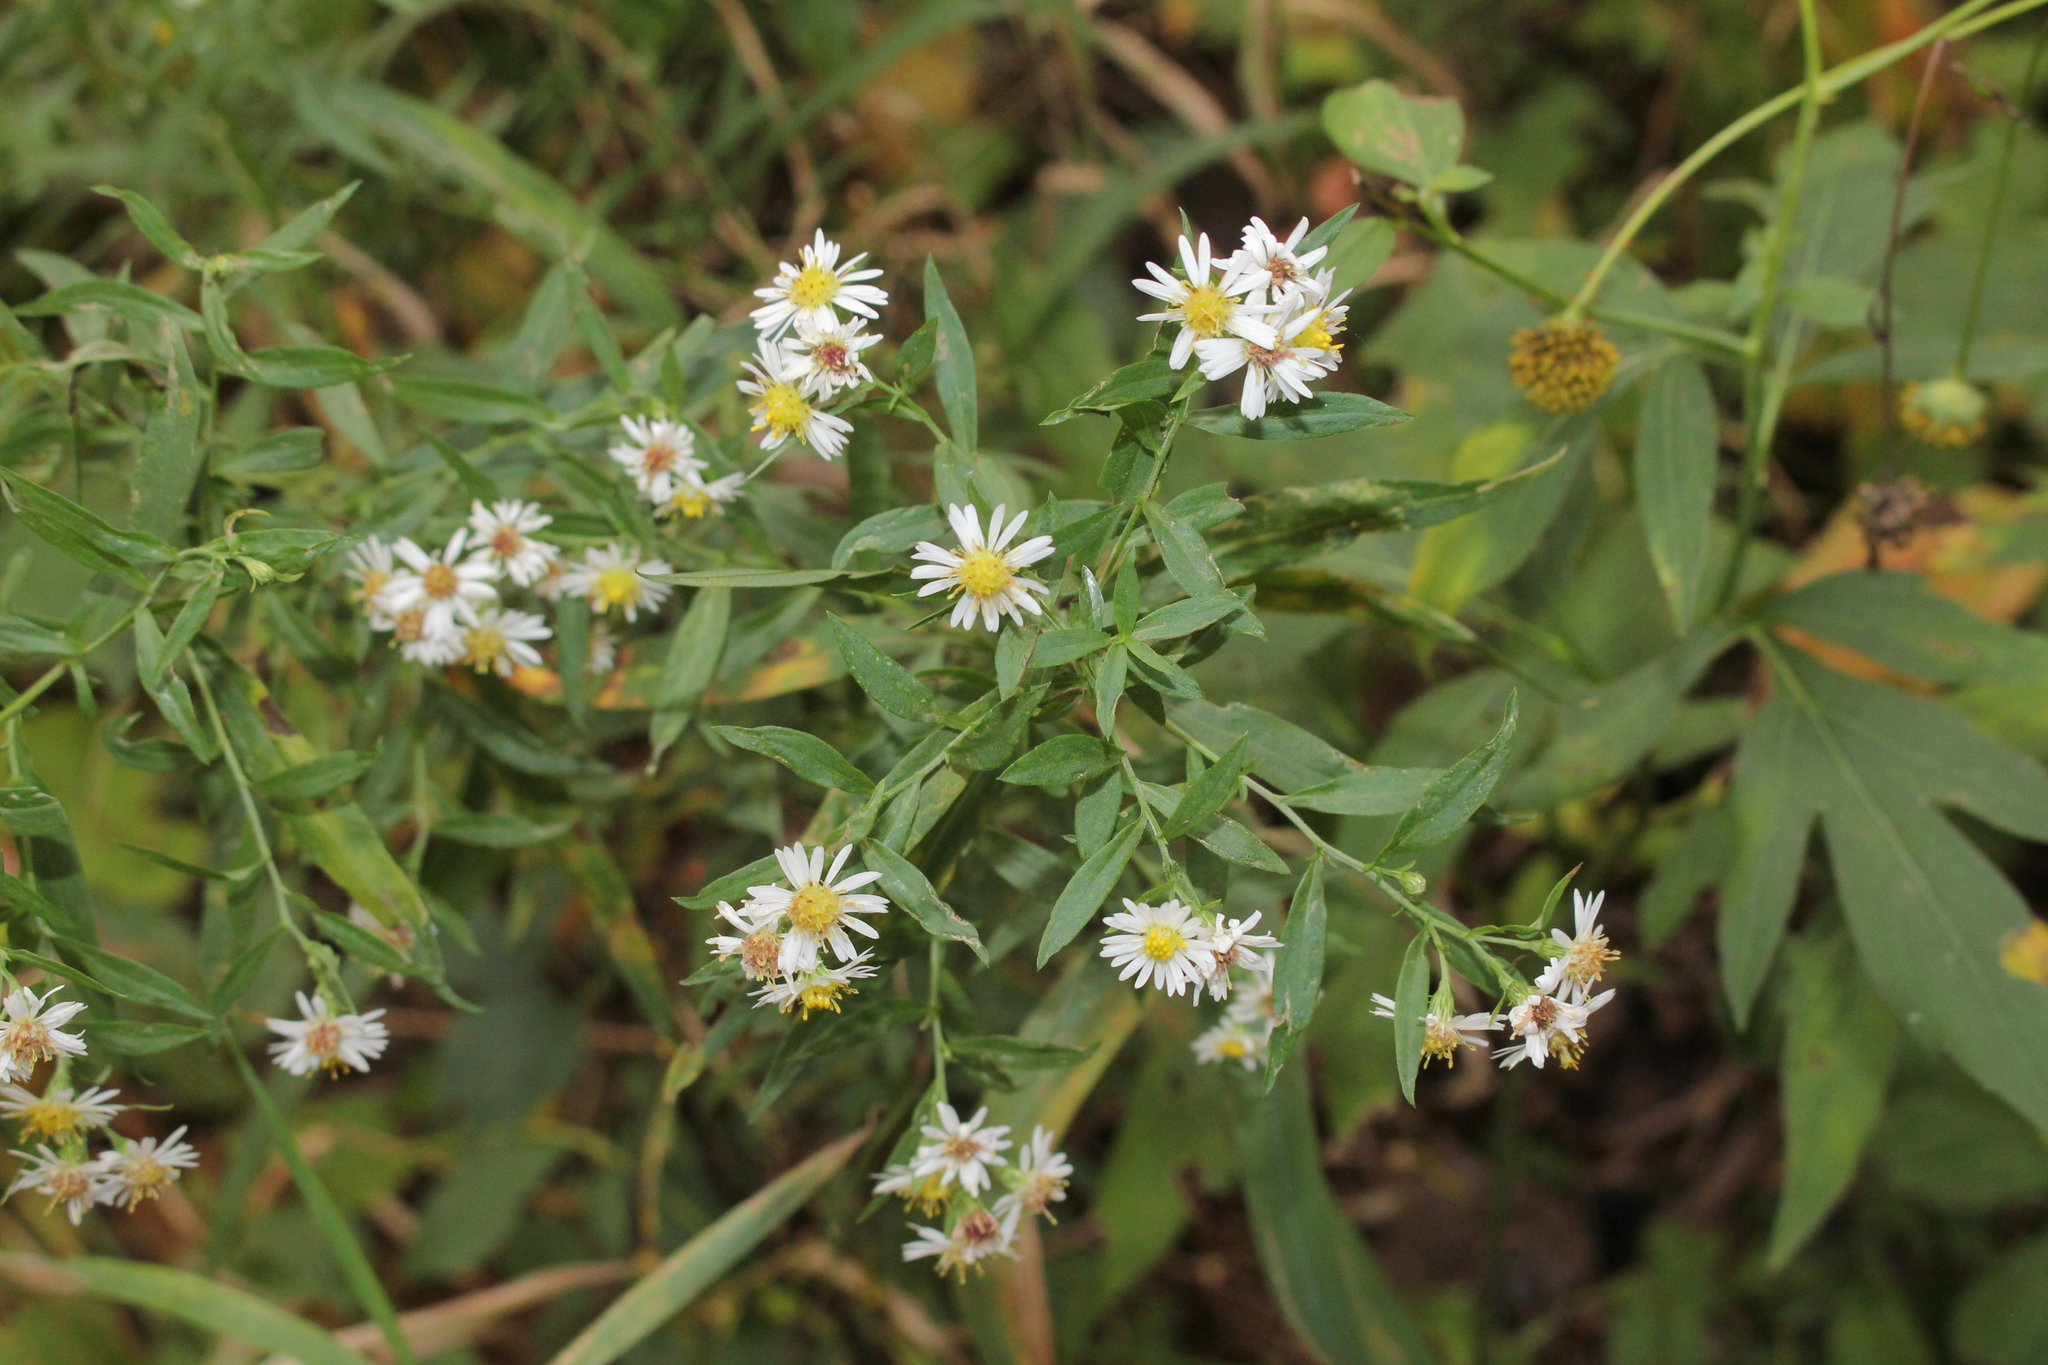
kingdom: Plantae
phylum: Tracheophyta
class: Magnoliopsida
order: Asterales
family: Asteraceae
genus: Symphyotrichum
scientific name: Symphyotrichum lanceolatum
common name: Panicled aster
